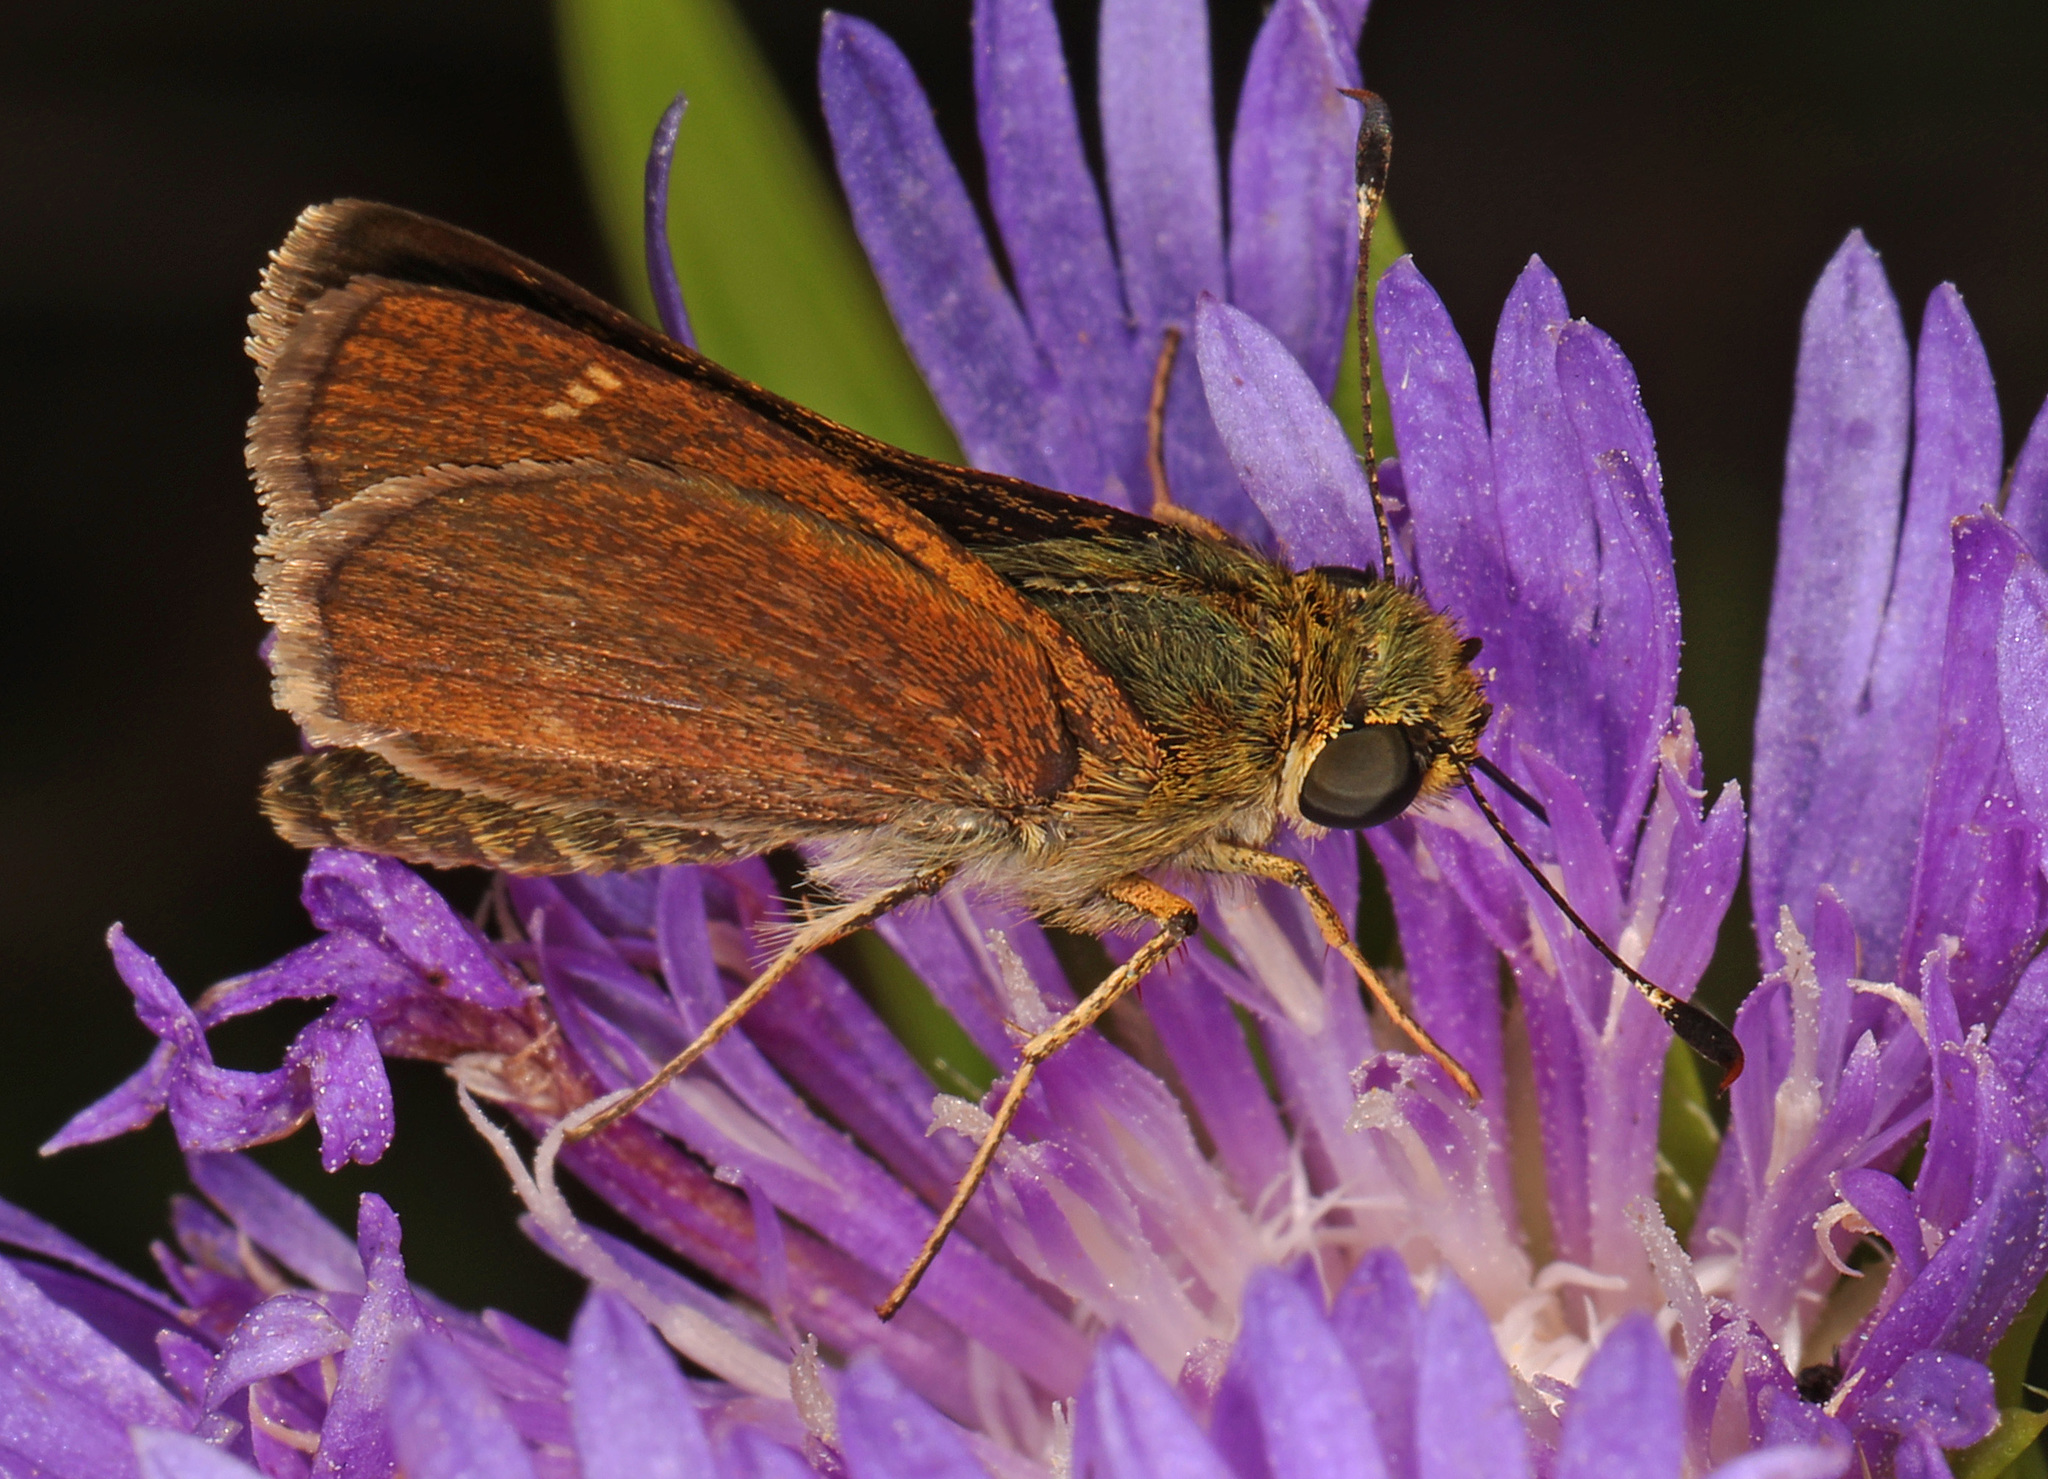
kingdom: Animalia
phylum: Arthropoda
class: Insecta
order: Lepidoptera
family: Hesperiidae
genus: Vernia
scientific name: Vernia verna
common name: Little glassywing
